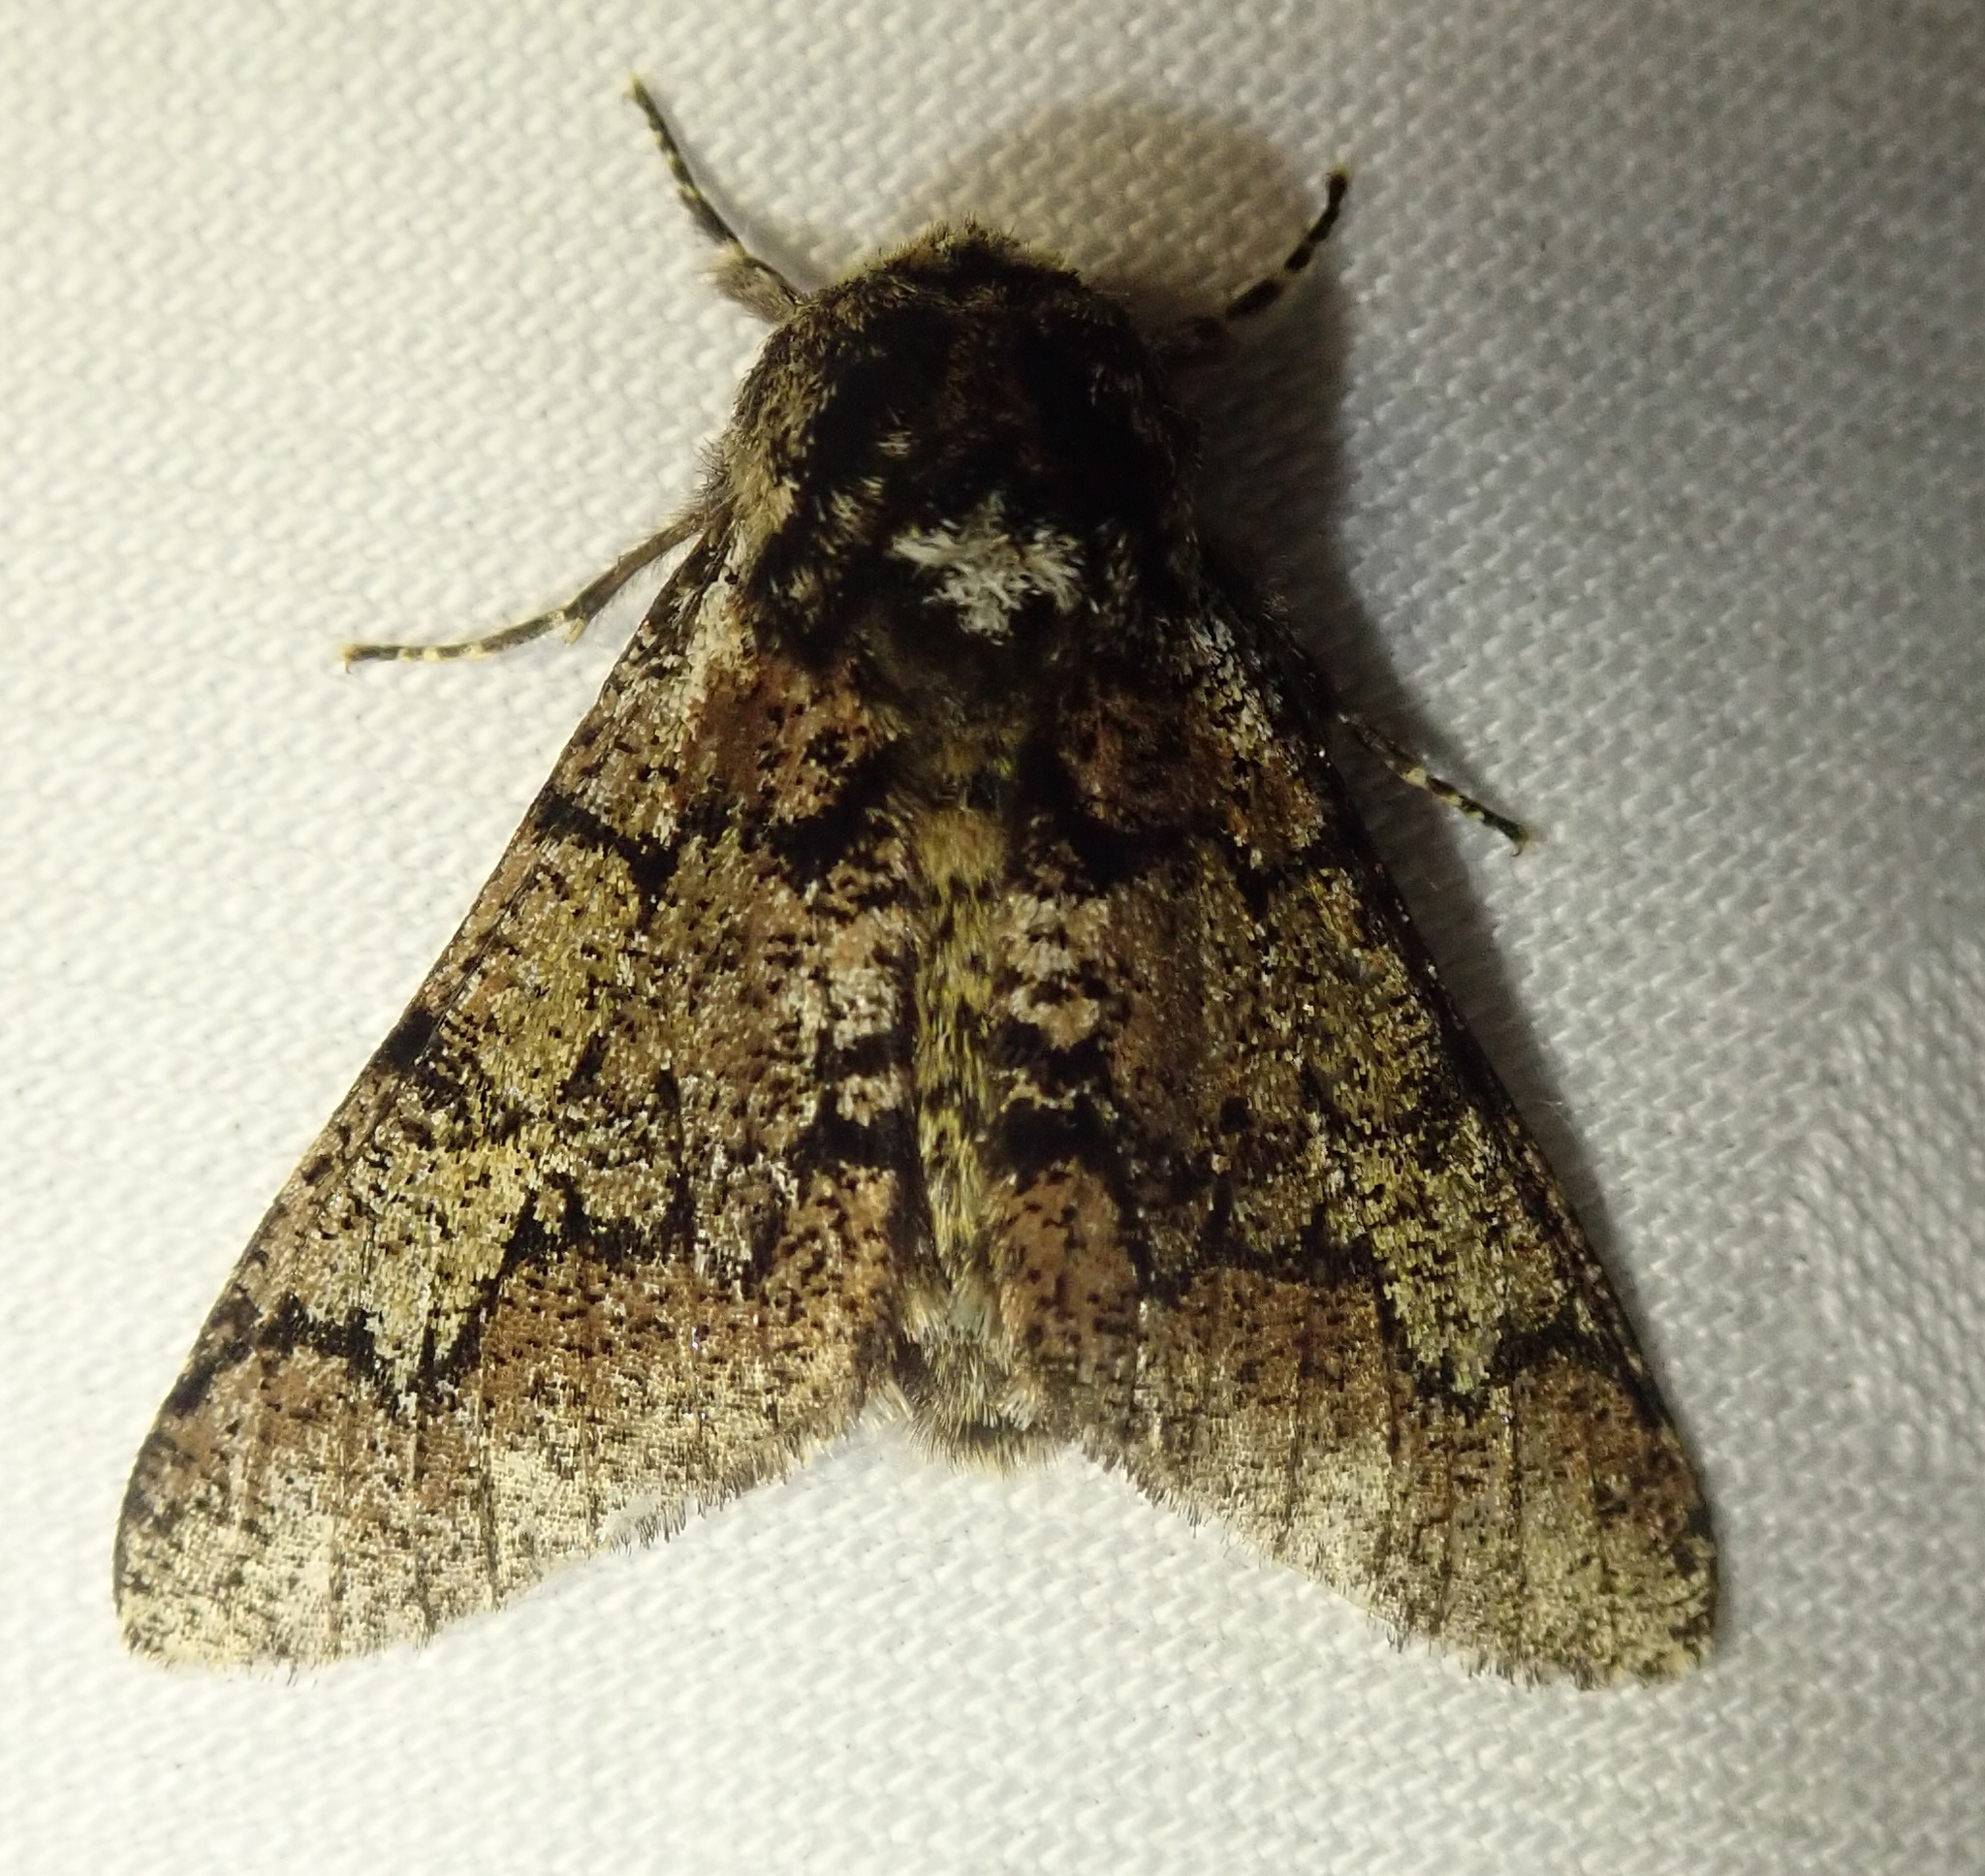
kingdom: Animalia
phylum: Arthropoda
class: Insecta
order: Lepidoptera
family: Geometridae
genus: Biston
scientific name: Biston strataria
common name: Oak beauty
